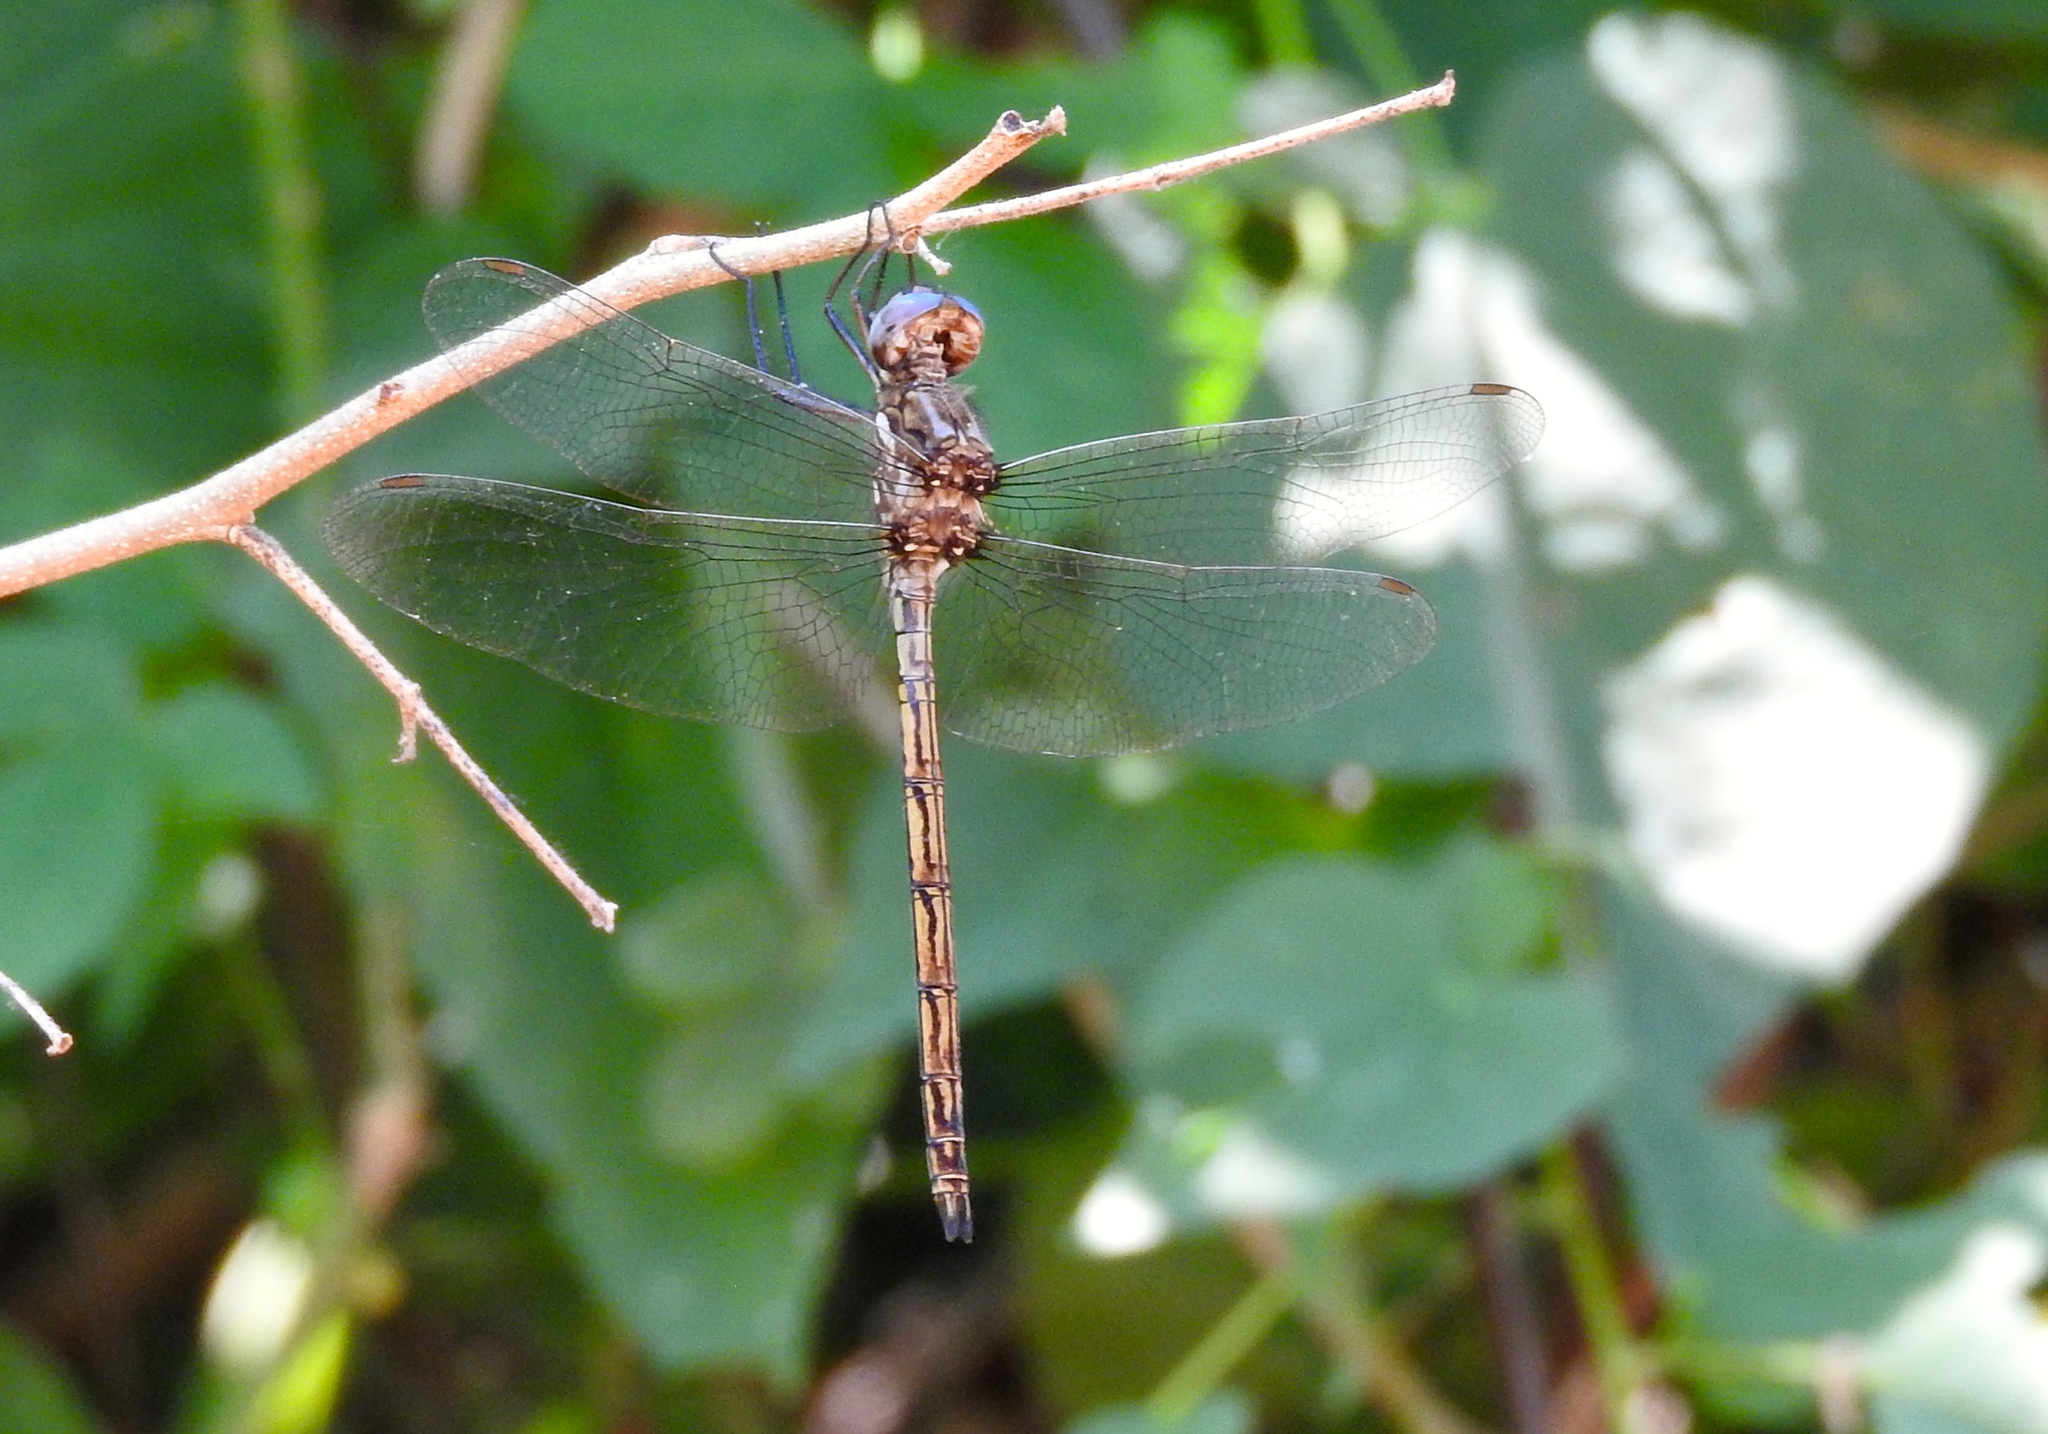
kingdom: Animalia
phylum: Arthropoda
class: Insecta
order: Odonata
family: Libellulidae
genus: Macrothemis
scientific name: Macrothemis inacuta
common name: Straw-colored sylph
